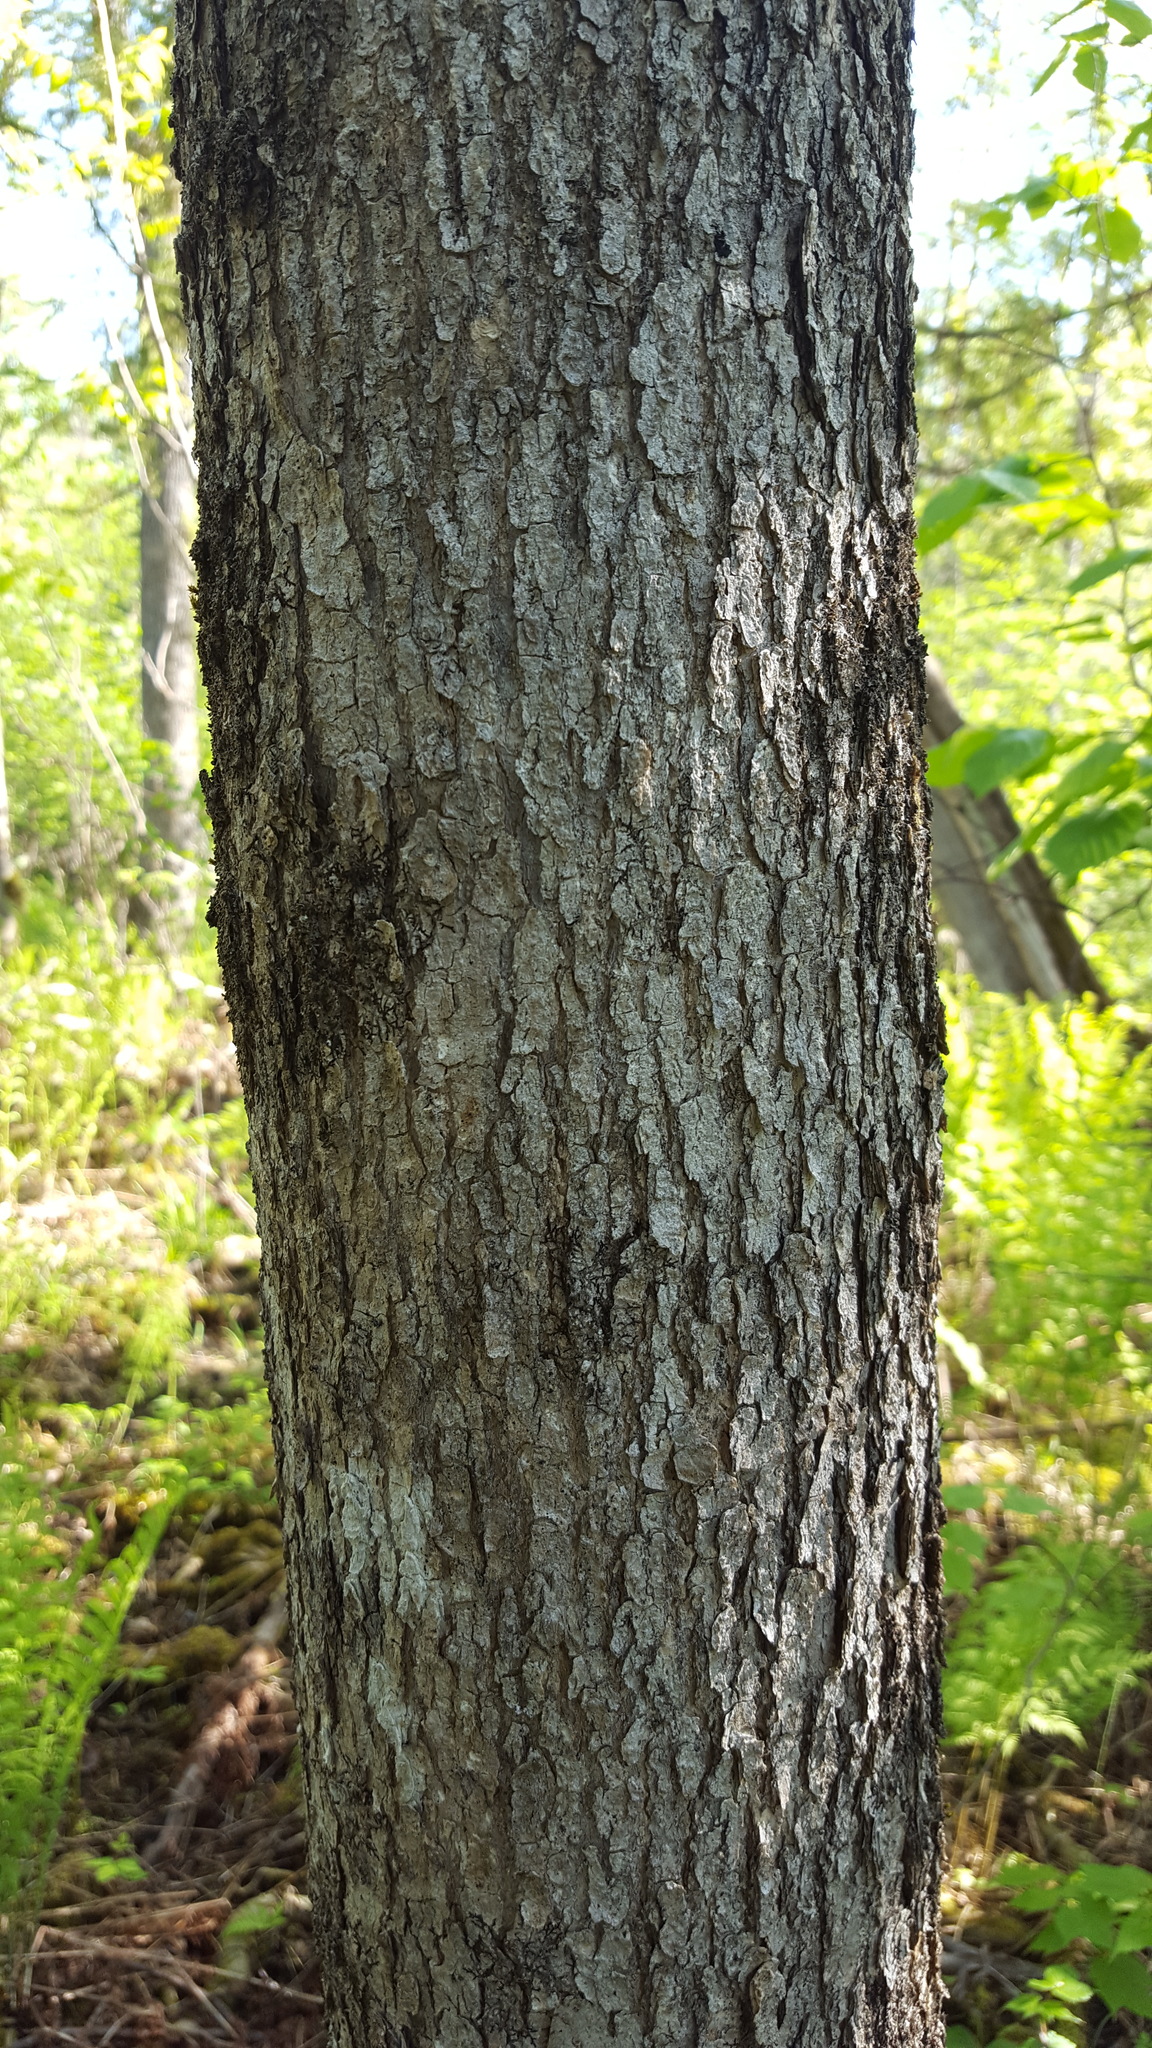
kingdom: Plantae
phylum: Tracheophyta
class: Magnoliopsida
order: Lamiales
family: Oleaceae
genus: Fraxinus
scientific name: Fraxinus nigra
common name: Black ash
